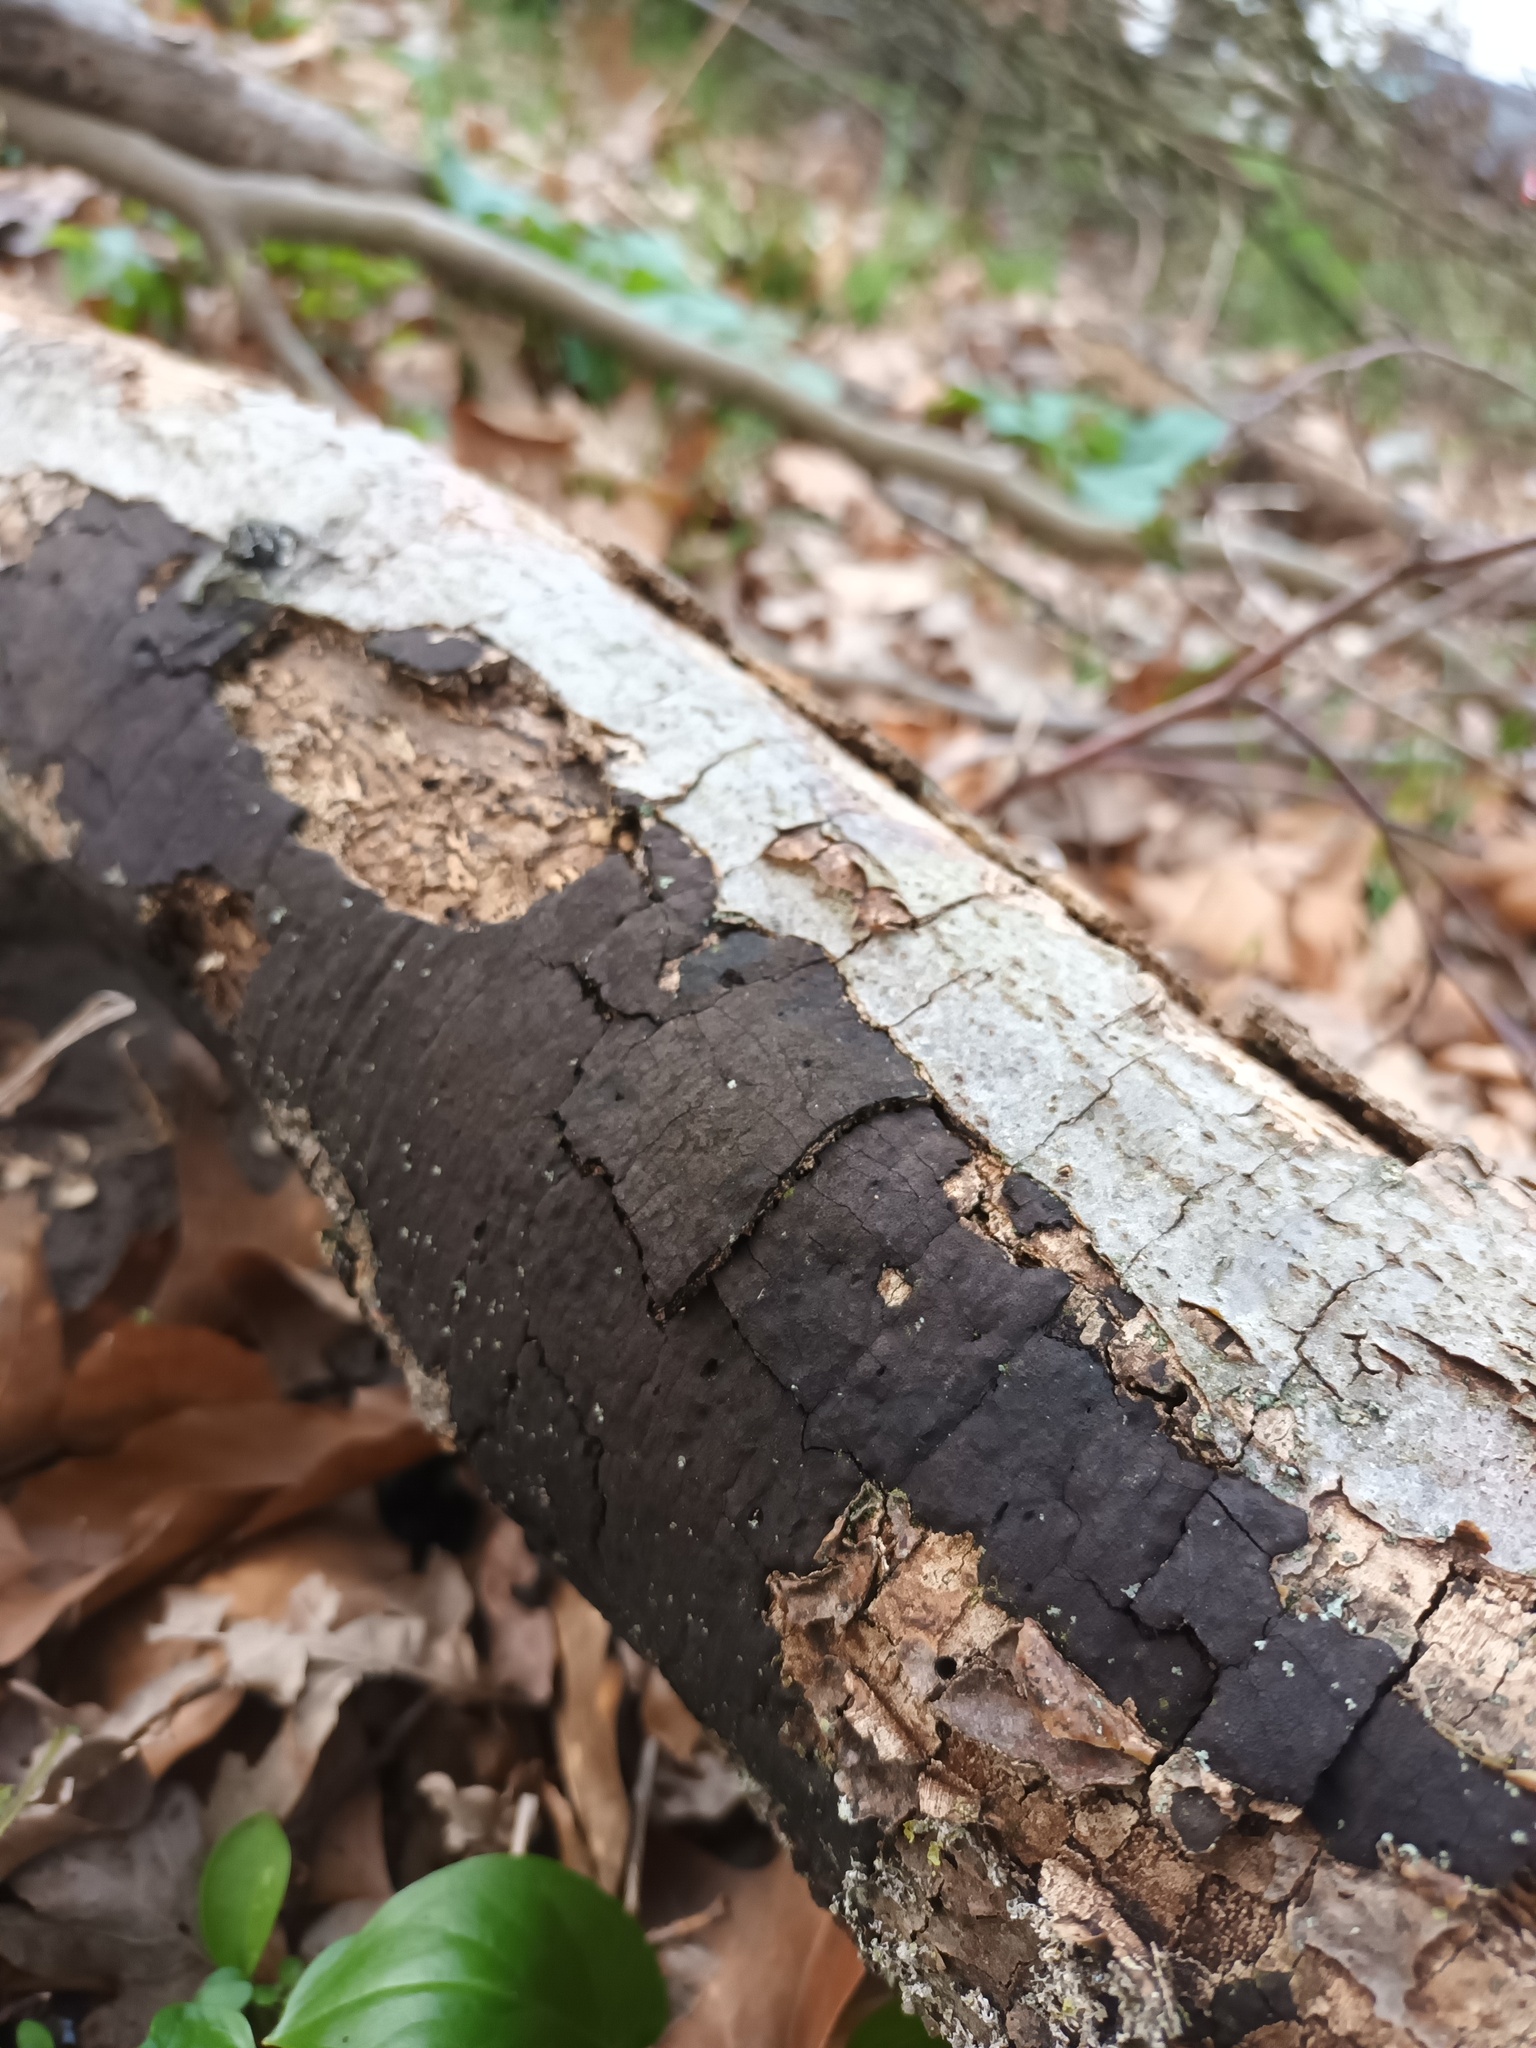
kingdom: Fungi
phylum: Ascomycota
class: Sordariomycetes
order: Xylariales
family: Diatrypaceae
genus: Diatrype
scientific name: Diatrype stigma
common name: Common tarcrust
